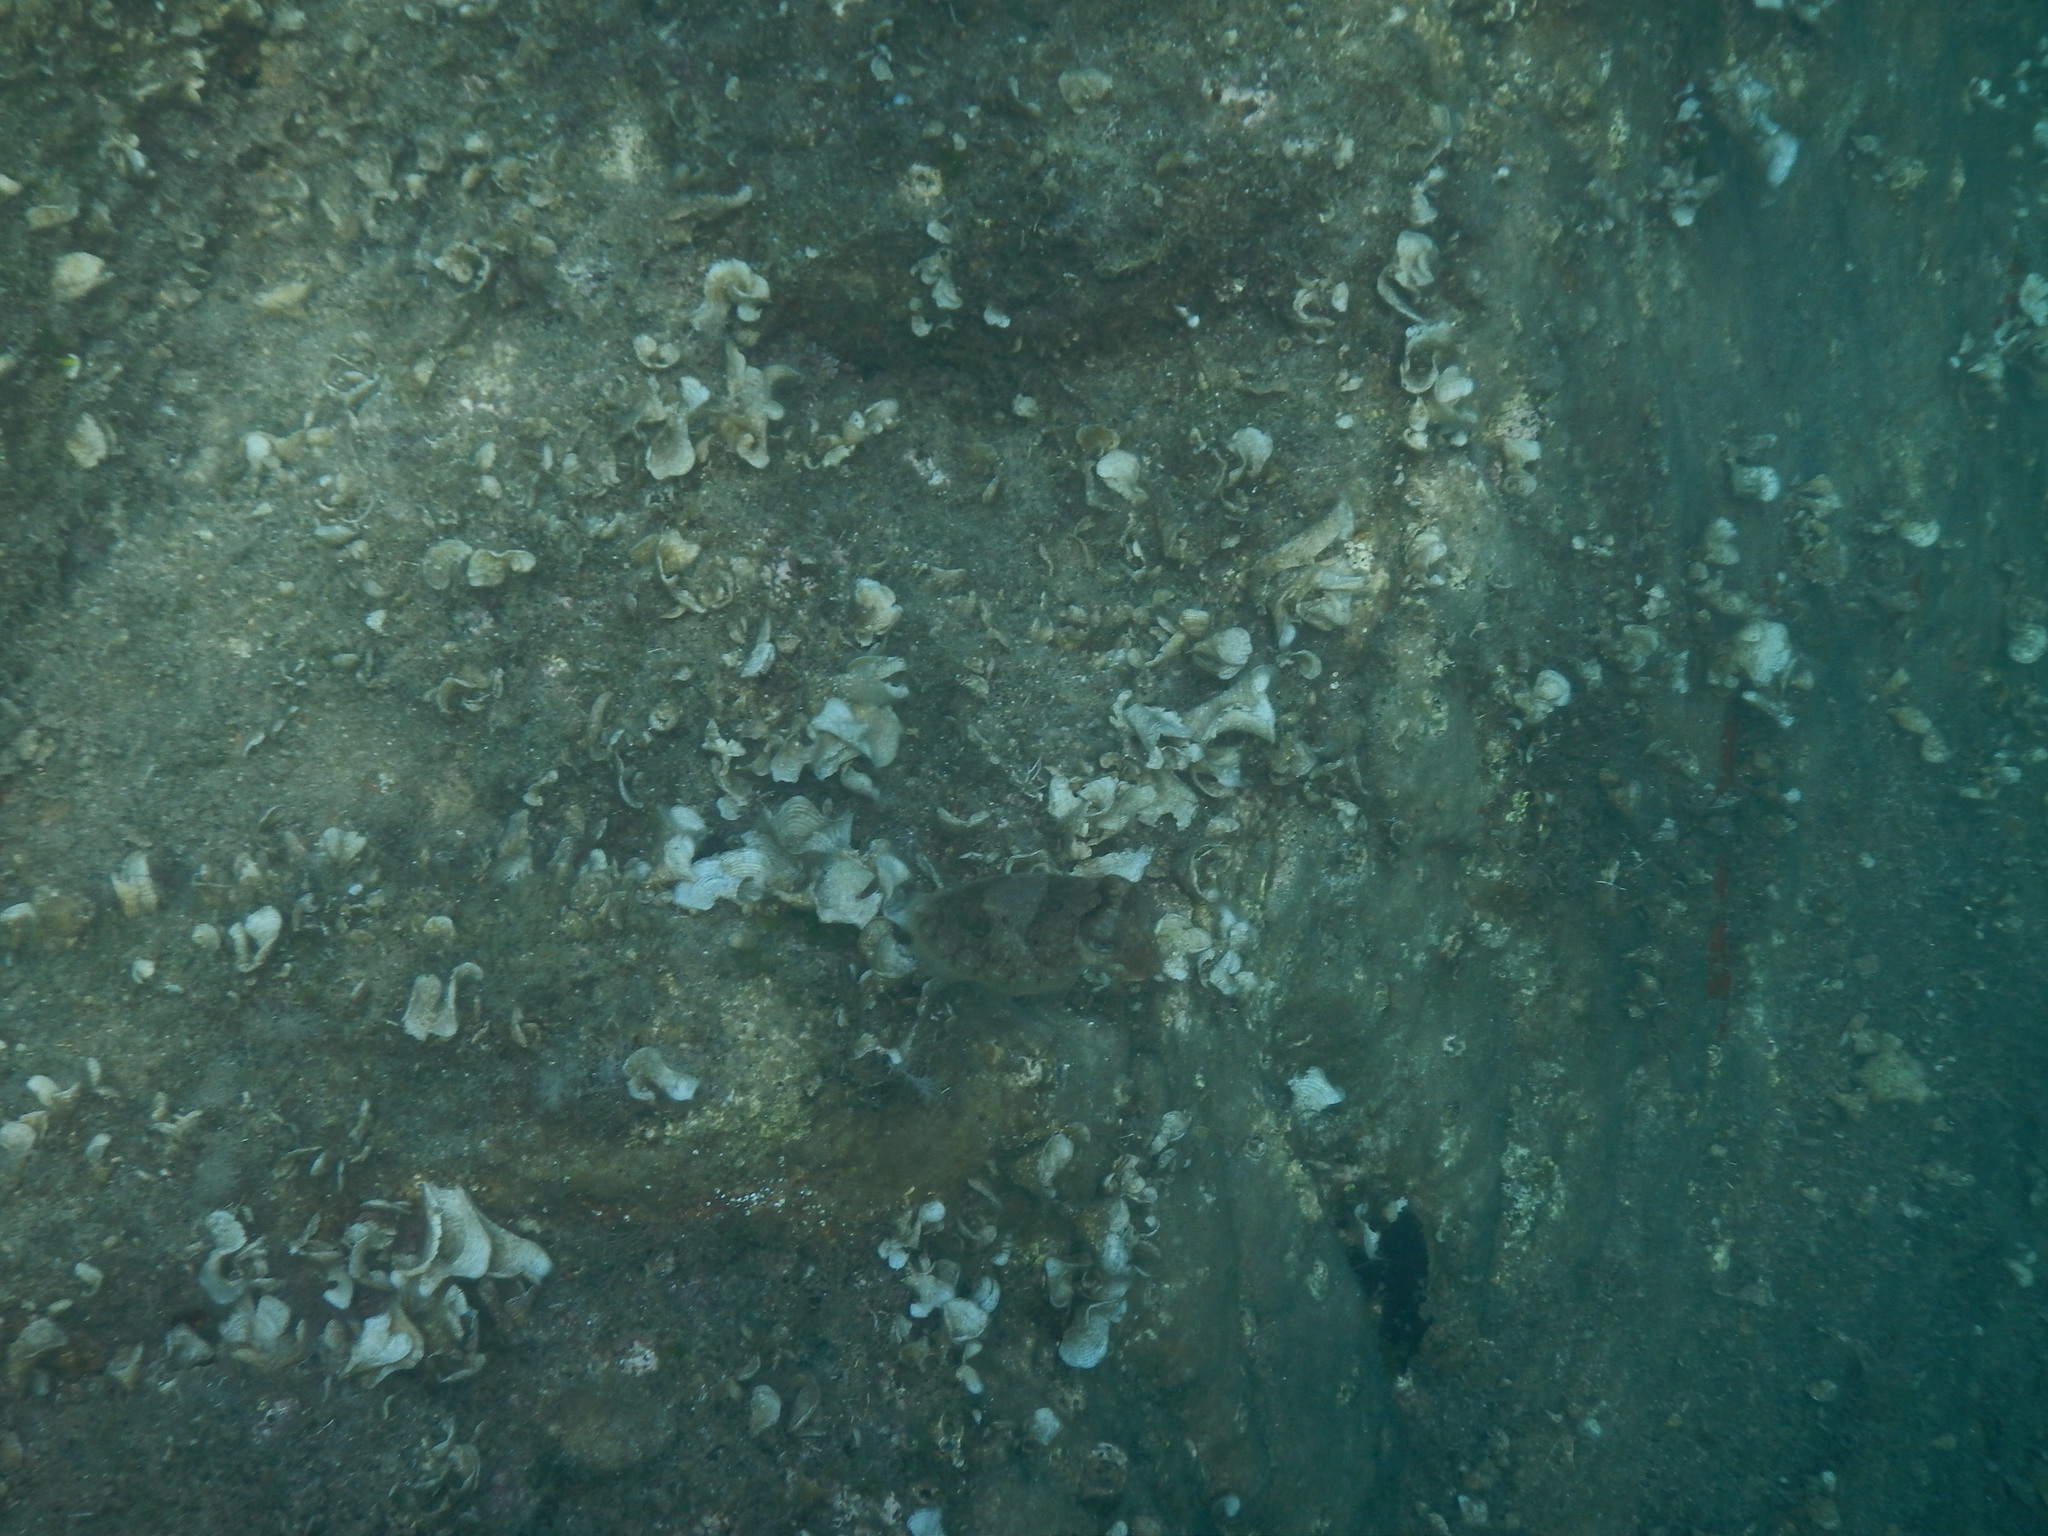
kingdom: Animalia
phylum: Mollusca
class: Cephalopoda
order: Sepiida
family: Sepiidae
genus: Sepia
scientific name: Sepia officinalis
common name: Common cuttlefish
